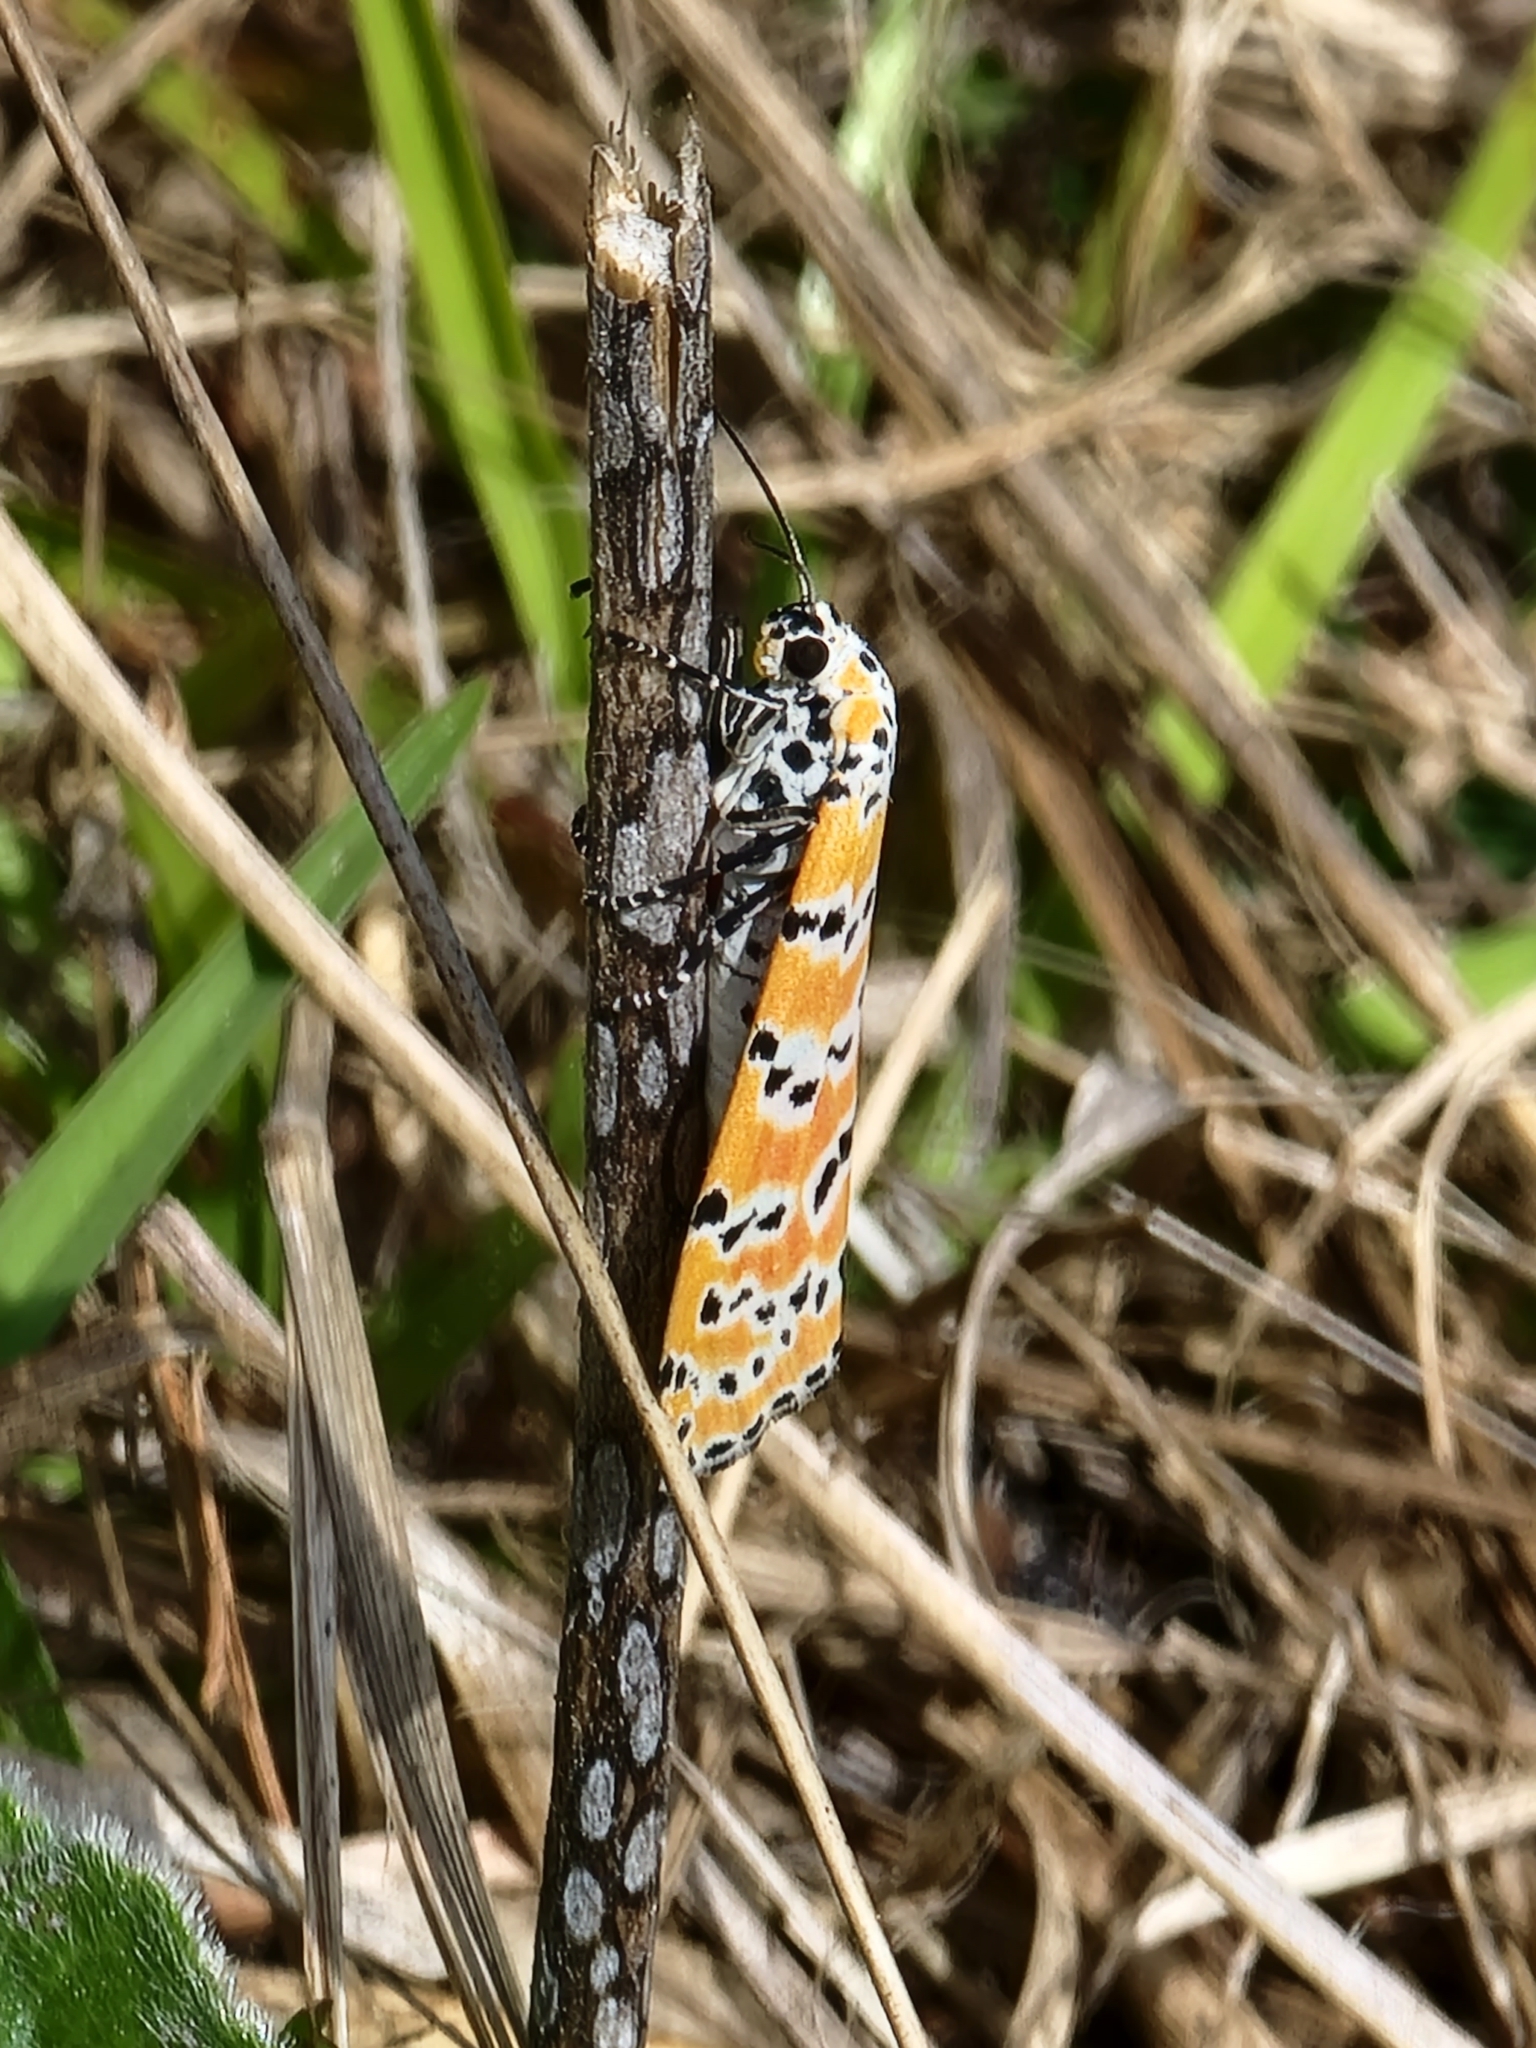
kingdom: Animalia
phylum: Arthropoda
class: Insecta
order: Lepidoptera
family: Erebidae
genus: Utetheisa
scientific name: Utetheisa ornatrix
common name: Beautiful utetheisa
